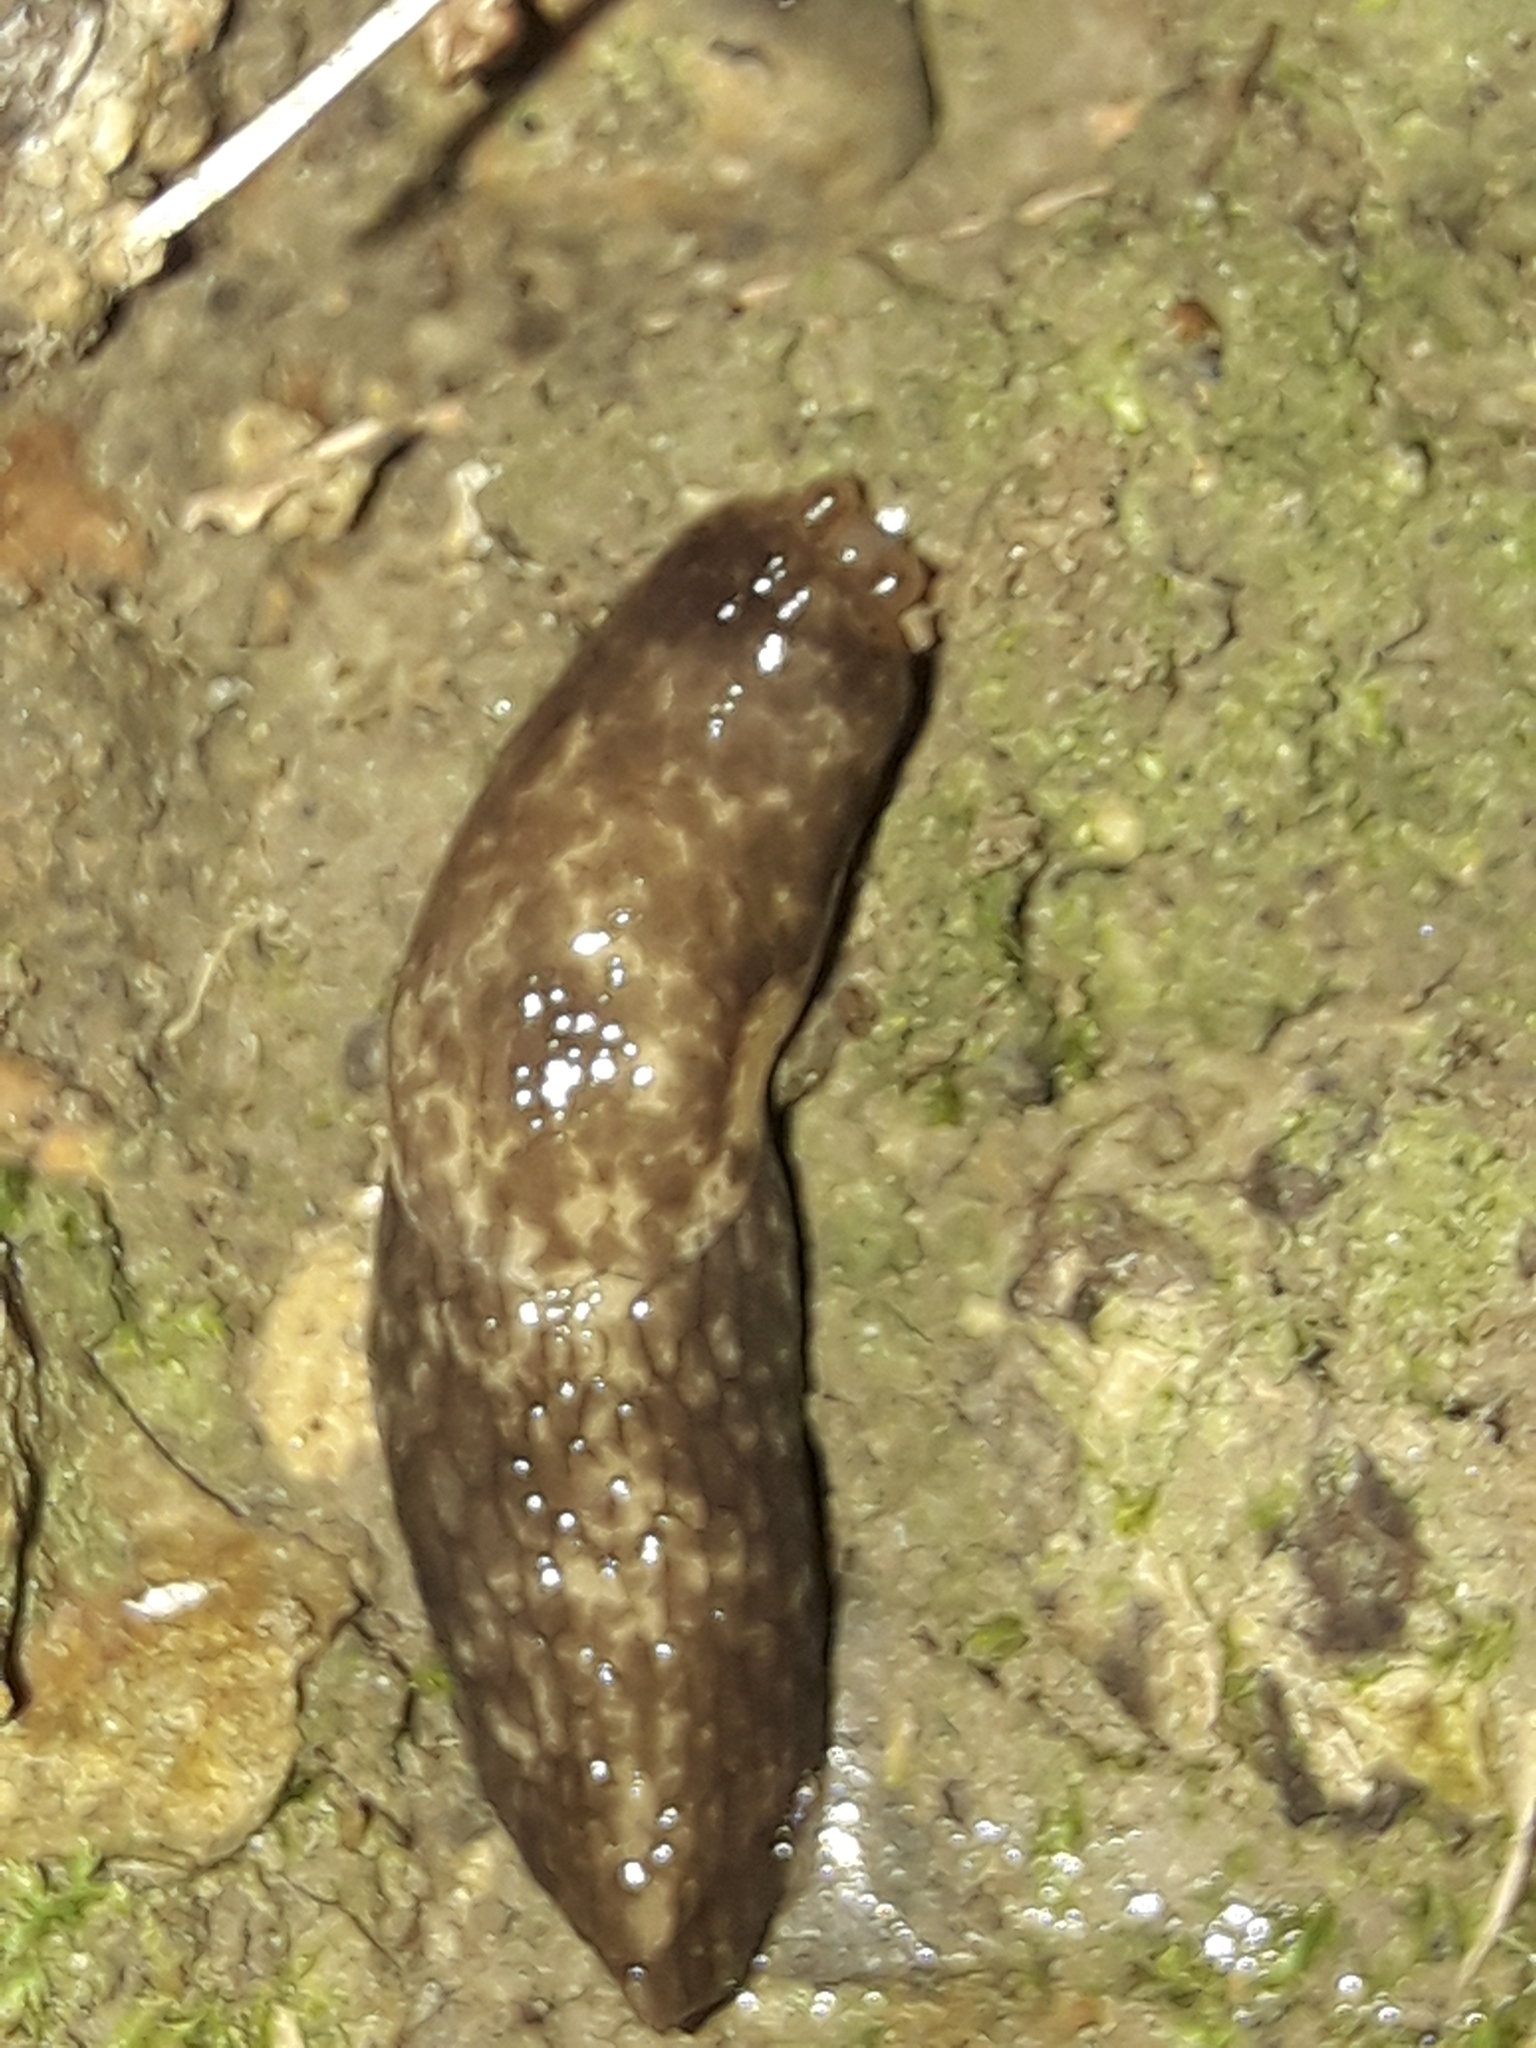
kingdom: Animalia
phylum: Mollusca
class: Gastropoda
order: Stylommatophora
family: Agriolimacidae
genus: Deroceras
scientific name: Deroceras reticulatum
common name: Gray field slug
